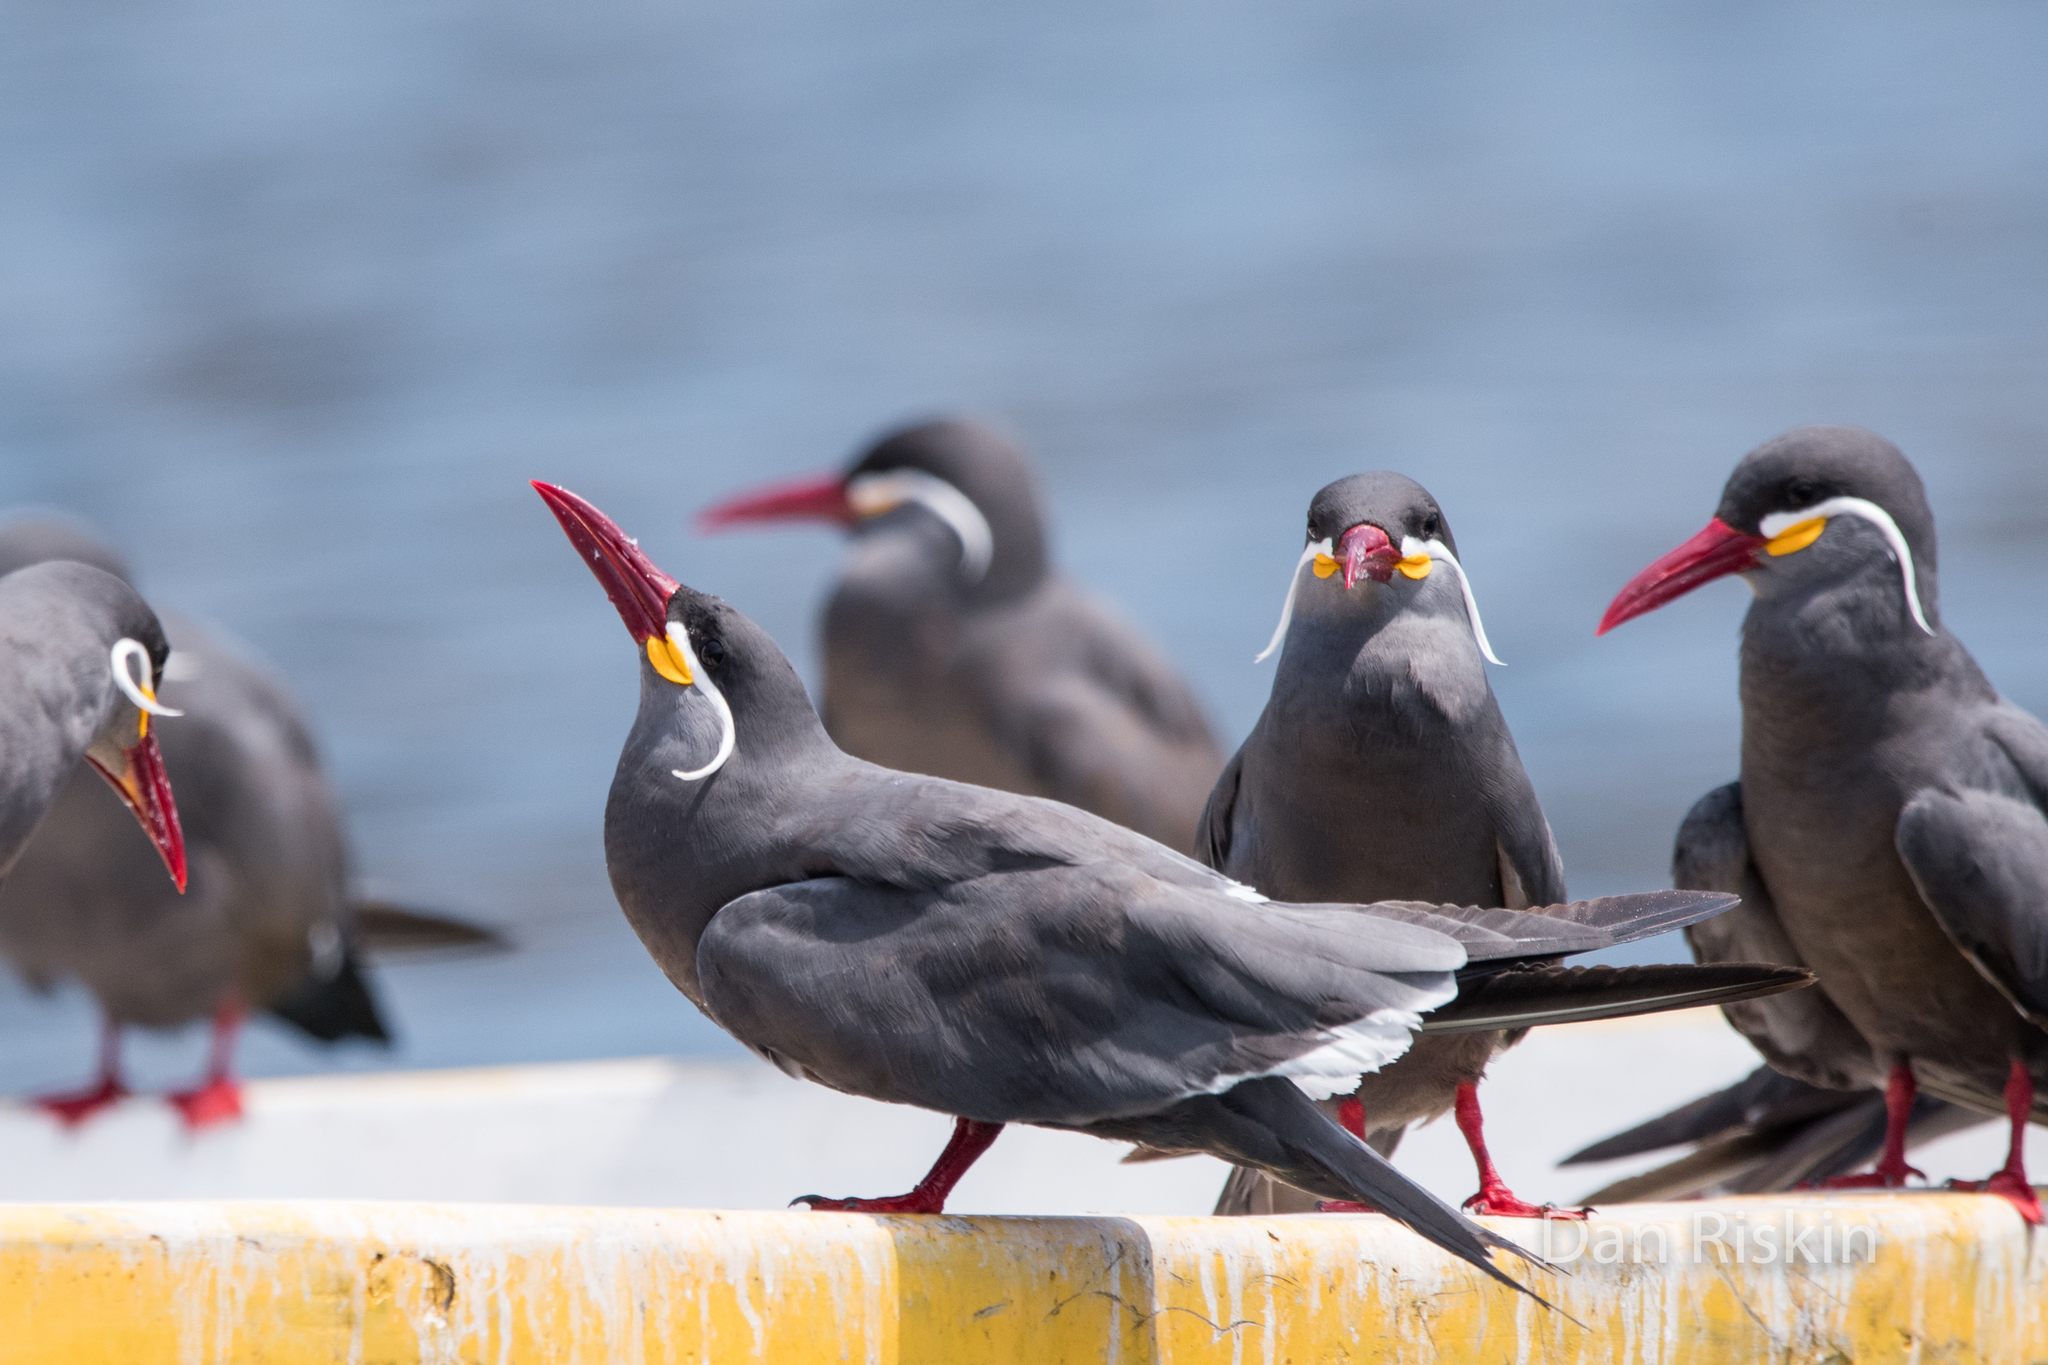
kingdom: Animalia
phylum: Chordata
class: Aves
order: Charadriiformes
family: Laridae
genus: Larosterna
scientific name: Larosterna inca
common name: Inca tern
